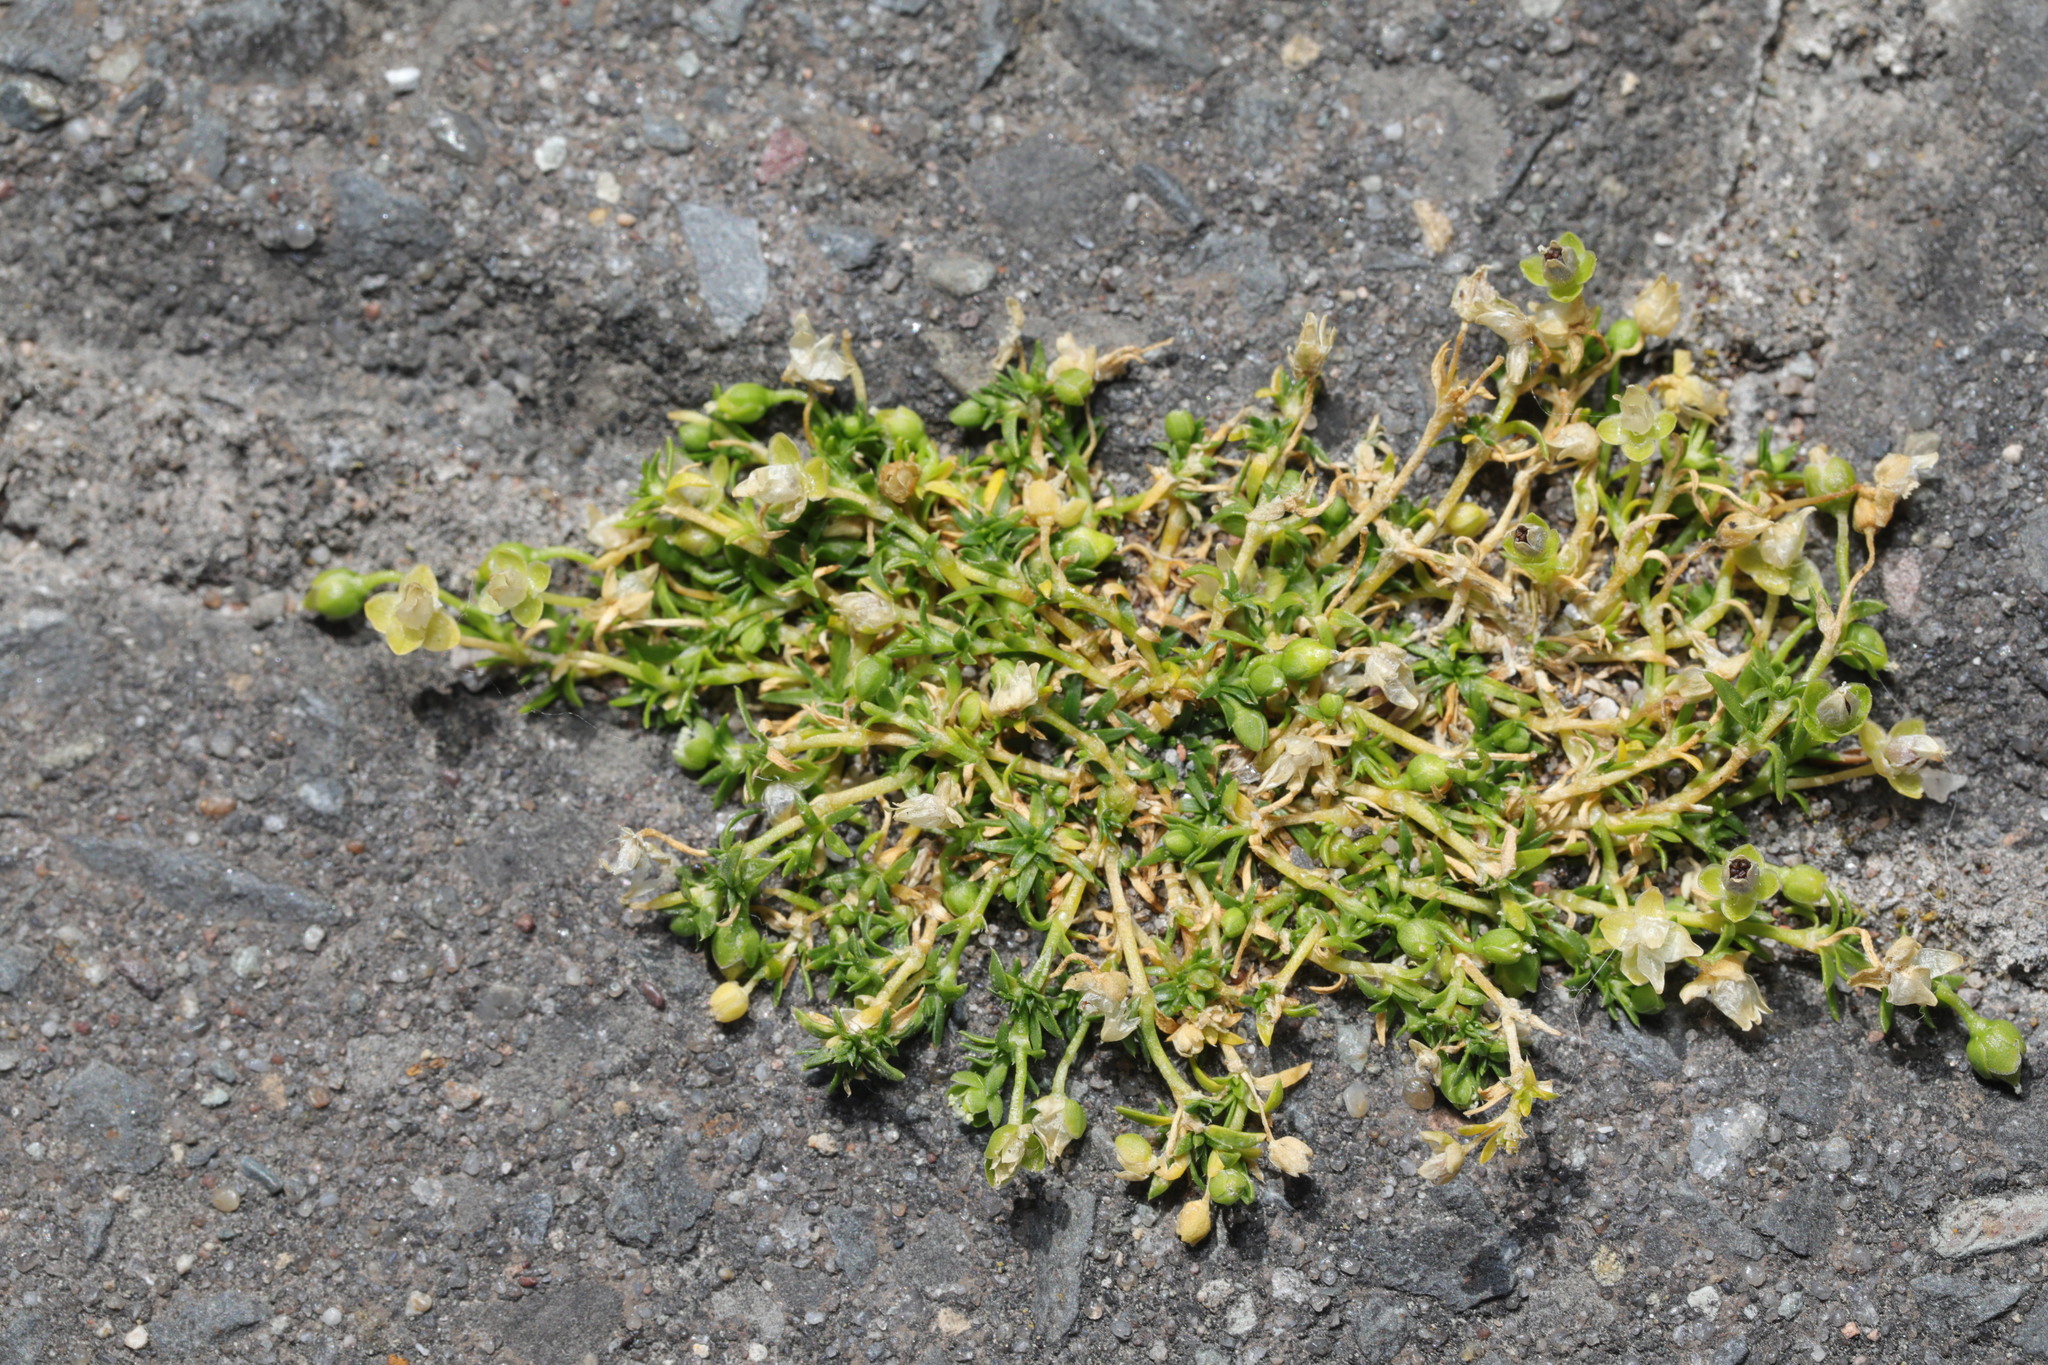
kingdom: Plantae
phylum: Tracheophyta
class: Magnoliopsida
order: Caryophyllales
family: Caryophyllaceae
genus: Sagina
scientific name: Sagina procumbens
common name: Procumbent pearlwort
